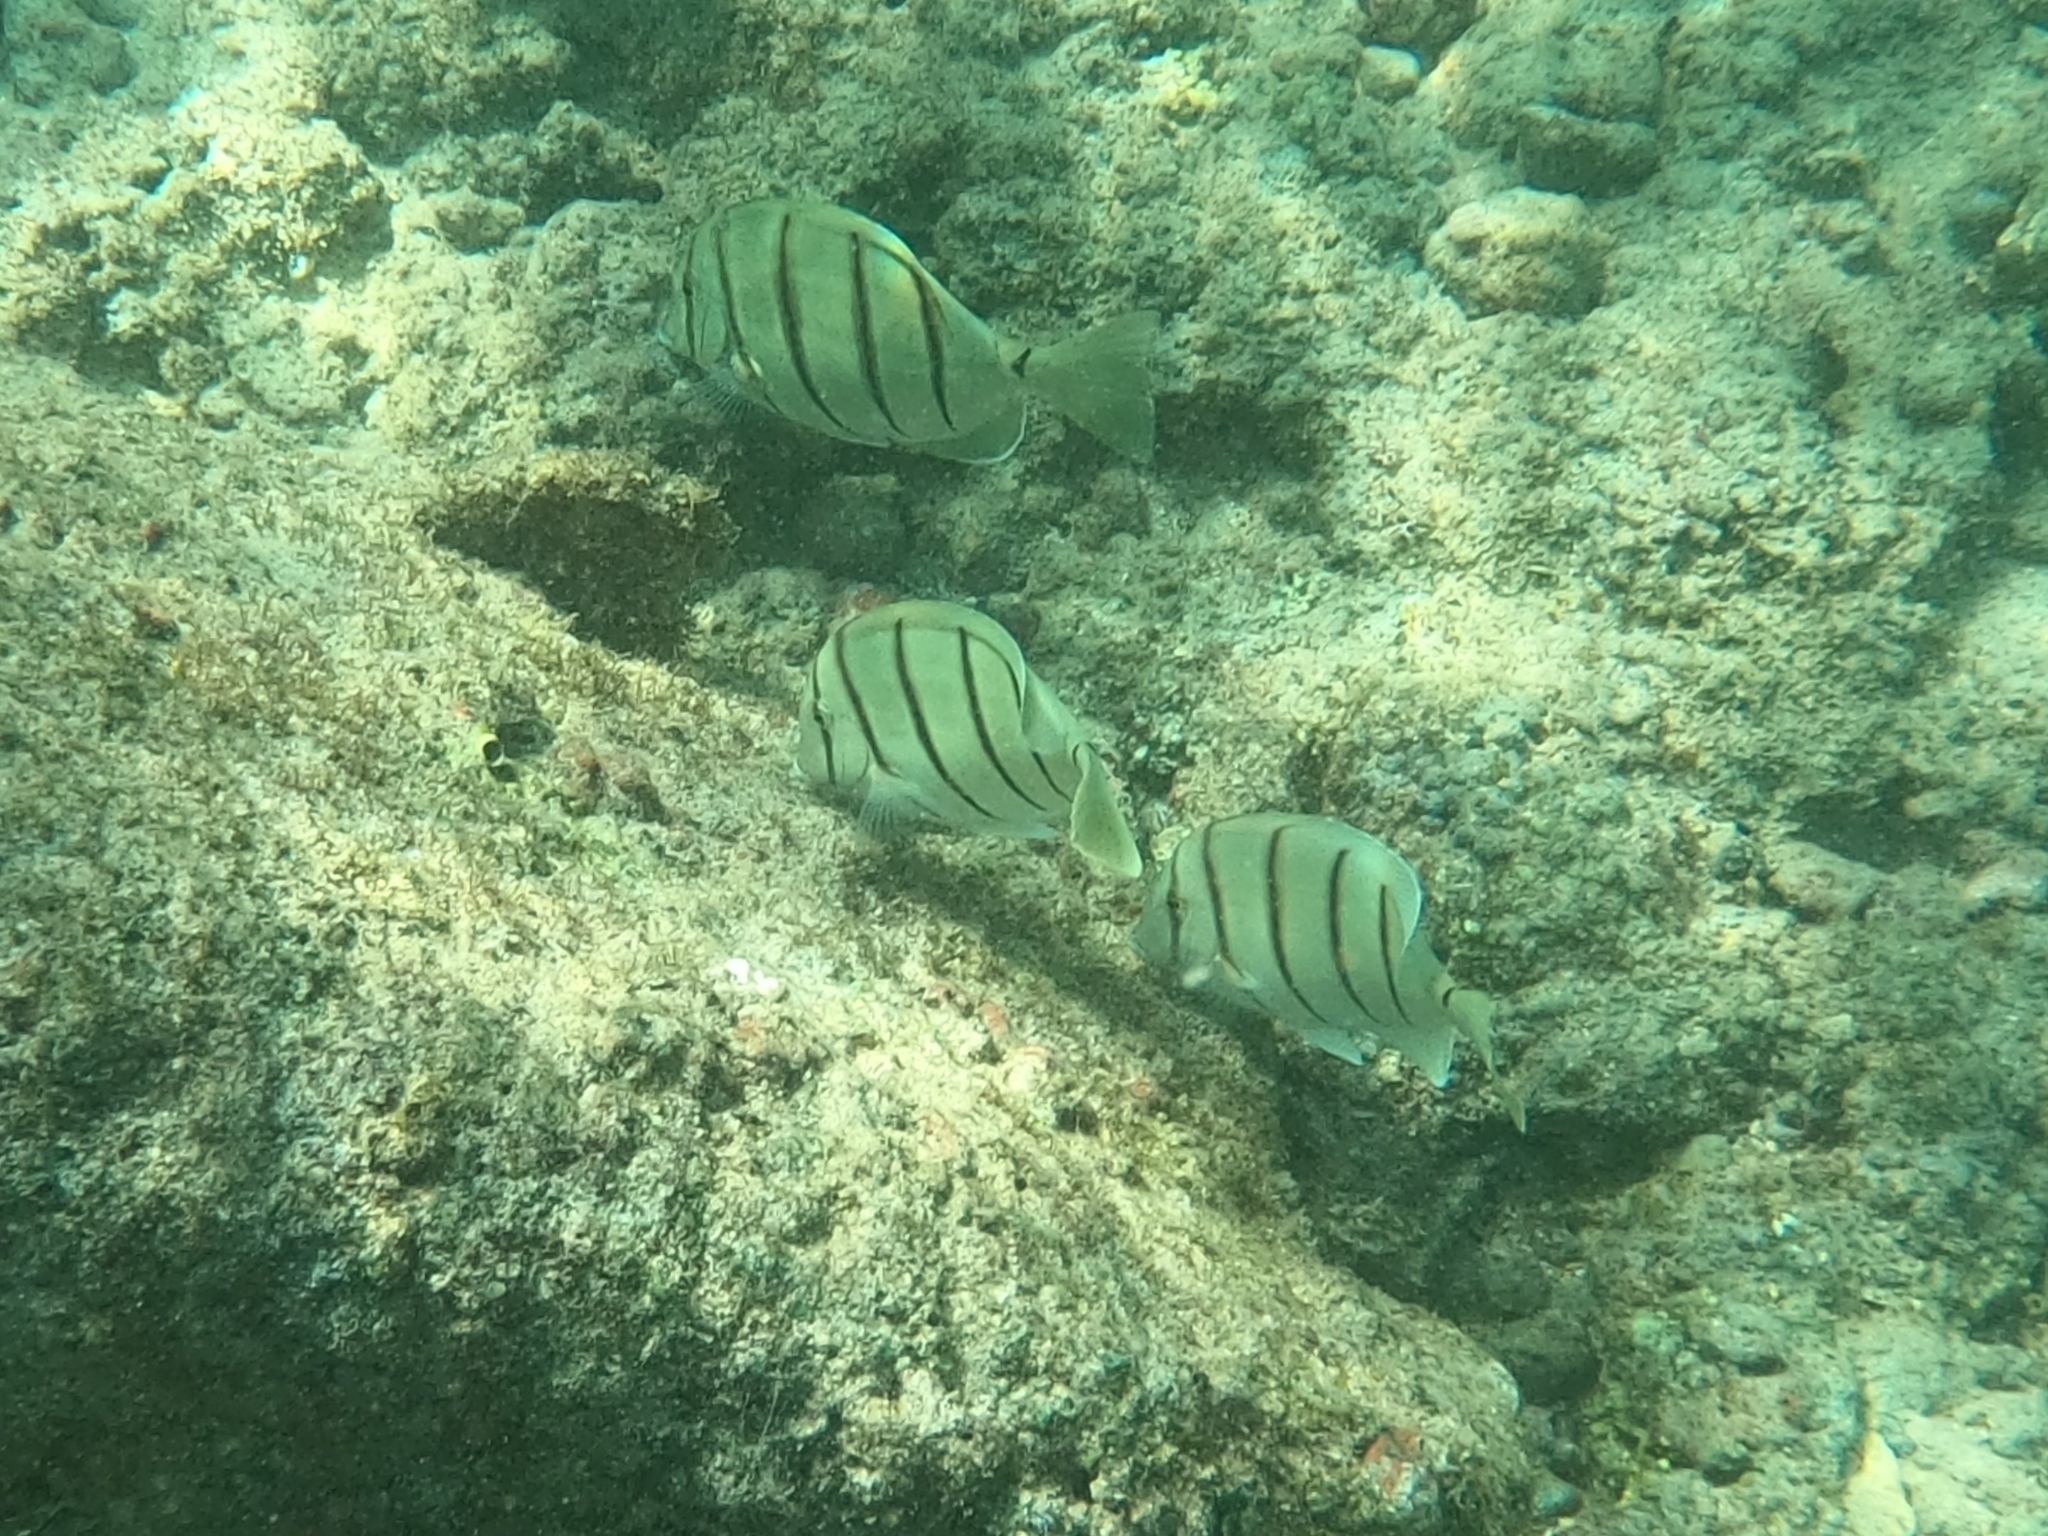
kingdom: Animalia
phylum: Chordata
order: Perciformes
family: Acanthuridae
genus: Acanthurus
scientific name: Acanthurus triostegus
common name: Convict surgeonfish
